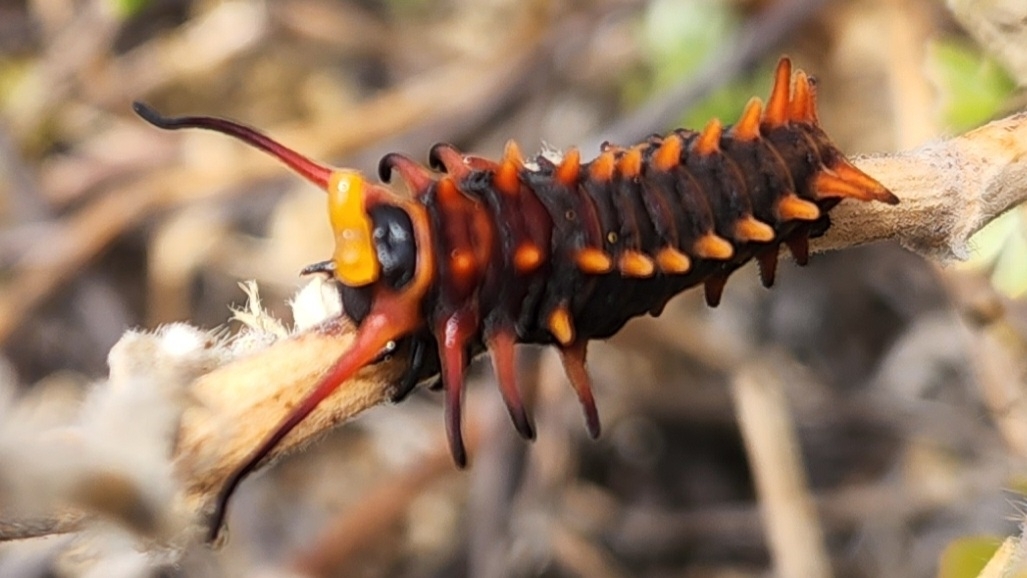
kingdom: Animalia
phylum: Arthropoda
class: Insecta
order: Lepidoptera
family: Papilionidae
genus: Battus
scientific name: Battus philenor
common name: Pipevine swallowtail
